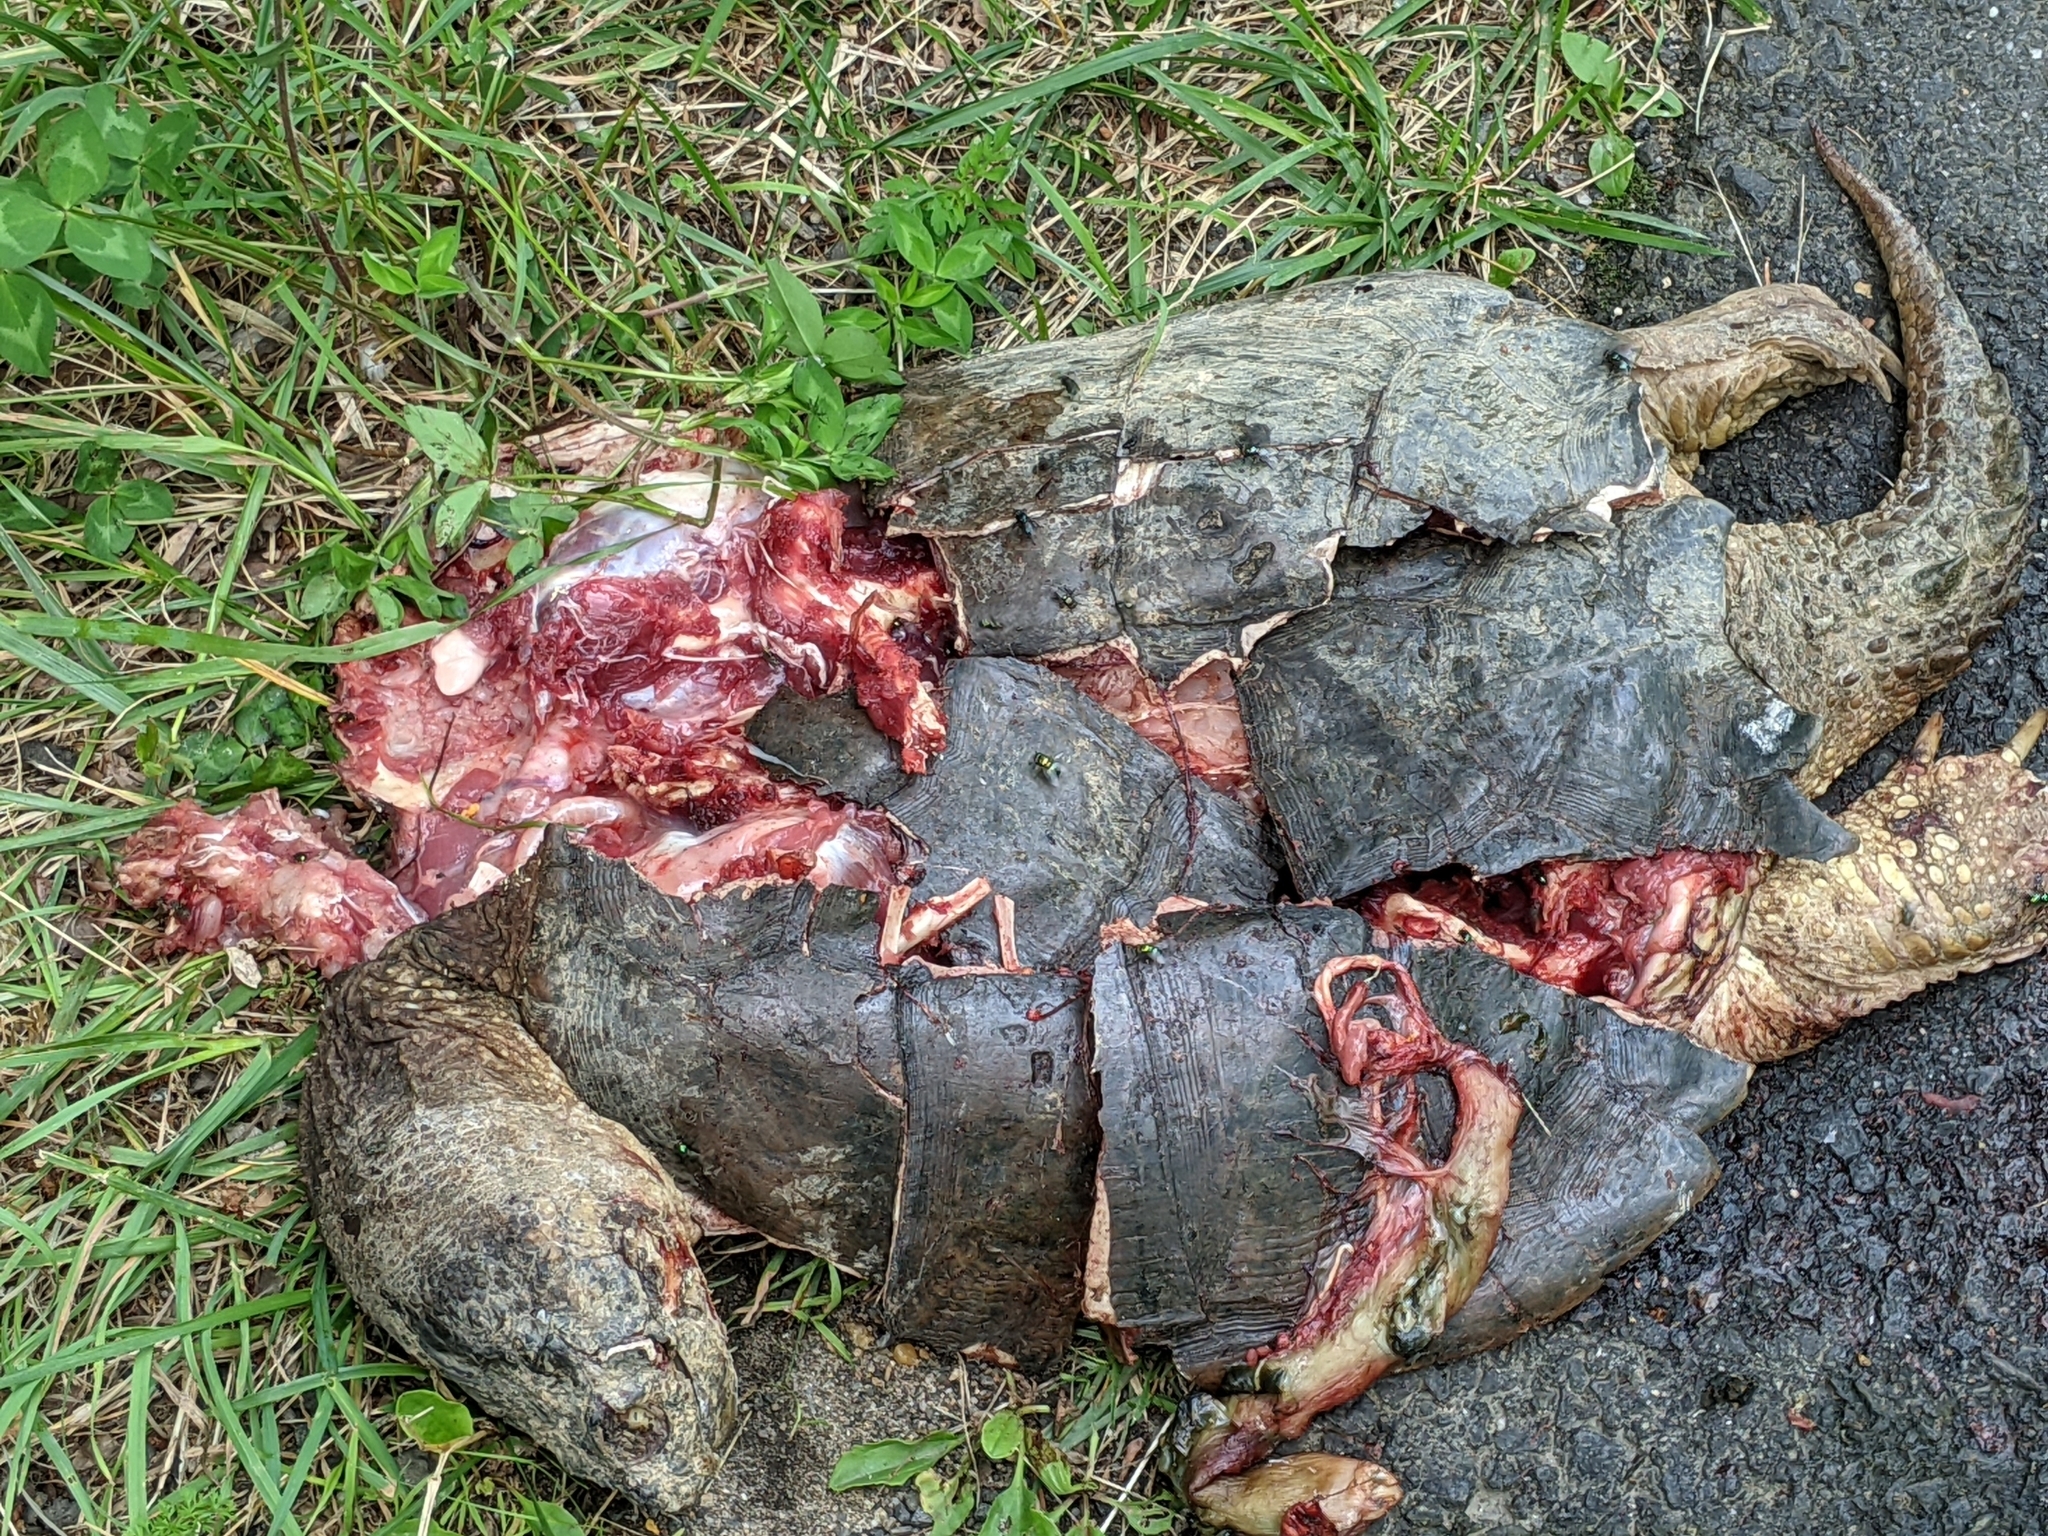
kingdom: Animalia
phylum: Chordata
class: Testudines
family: Chelydridae
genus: Chelydra
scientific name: Chelydra serpentina
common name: Common snapping turtle
